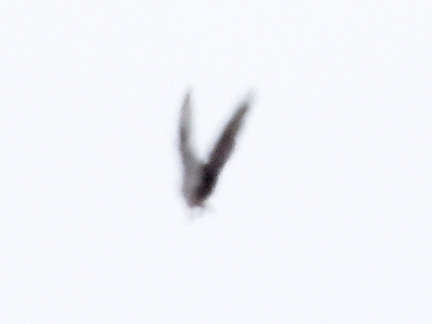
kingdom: Animalia
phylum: Chordata
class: Aves
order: Accipitriformes
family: Accipitridae
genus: Pernis
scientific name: Pernis apivorus
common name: European honey buzzard
